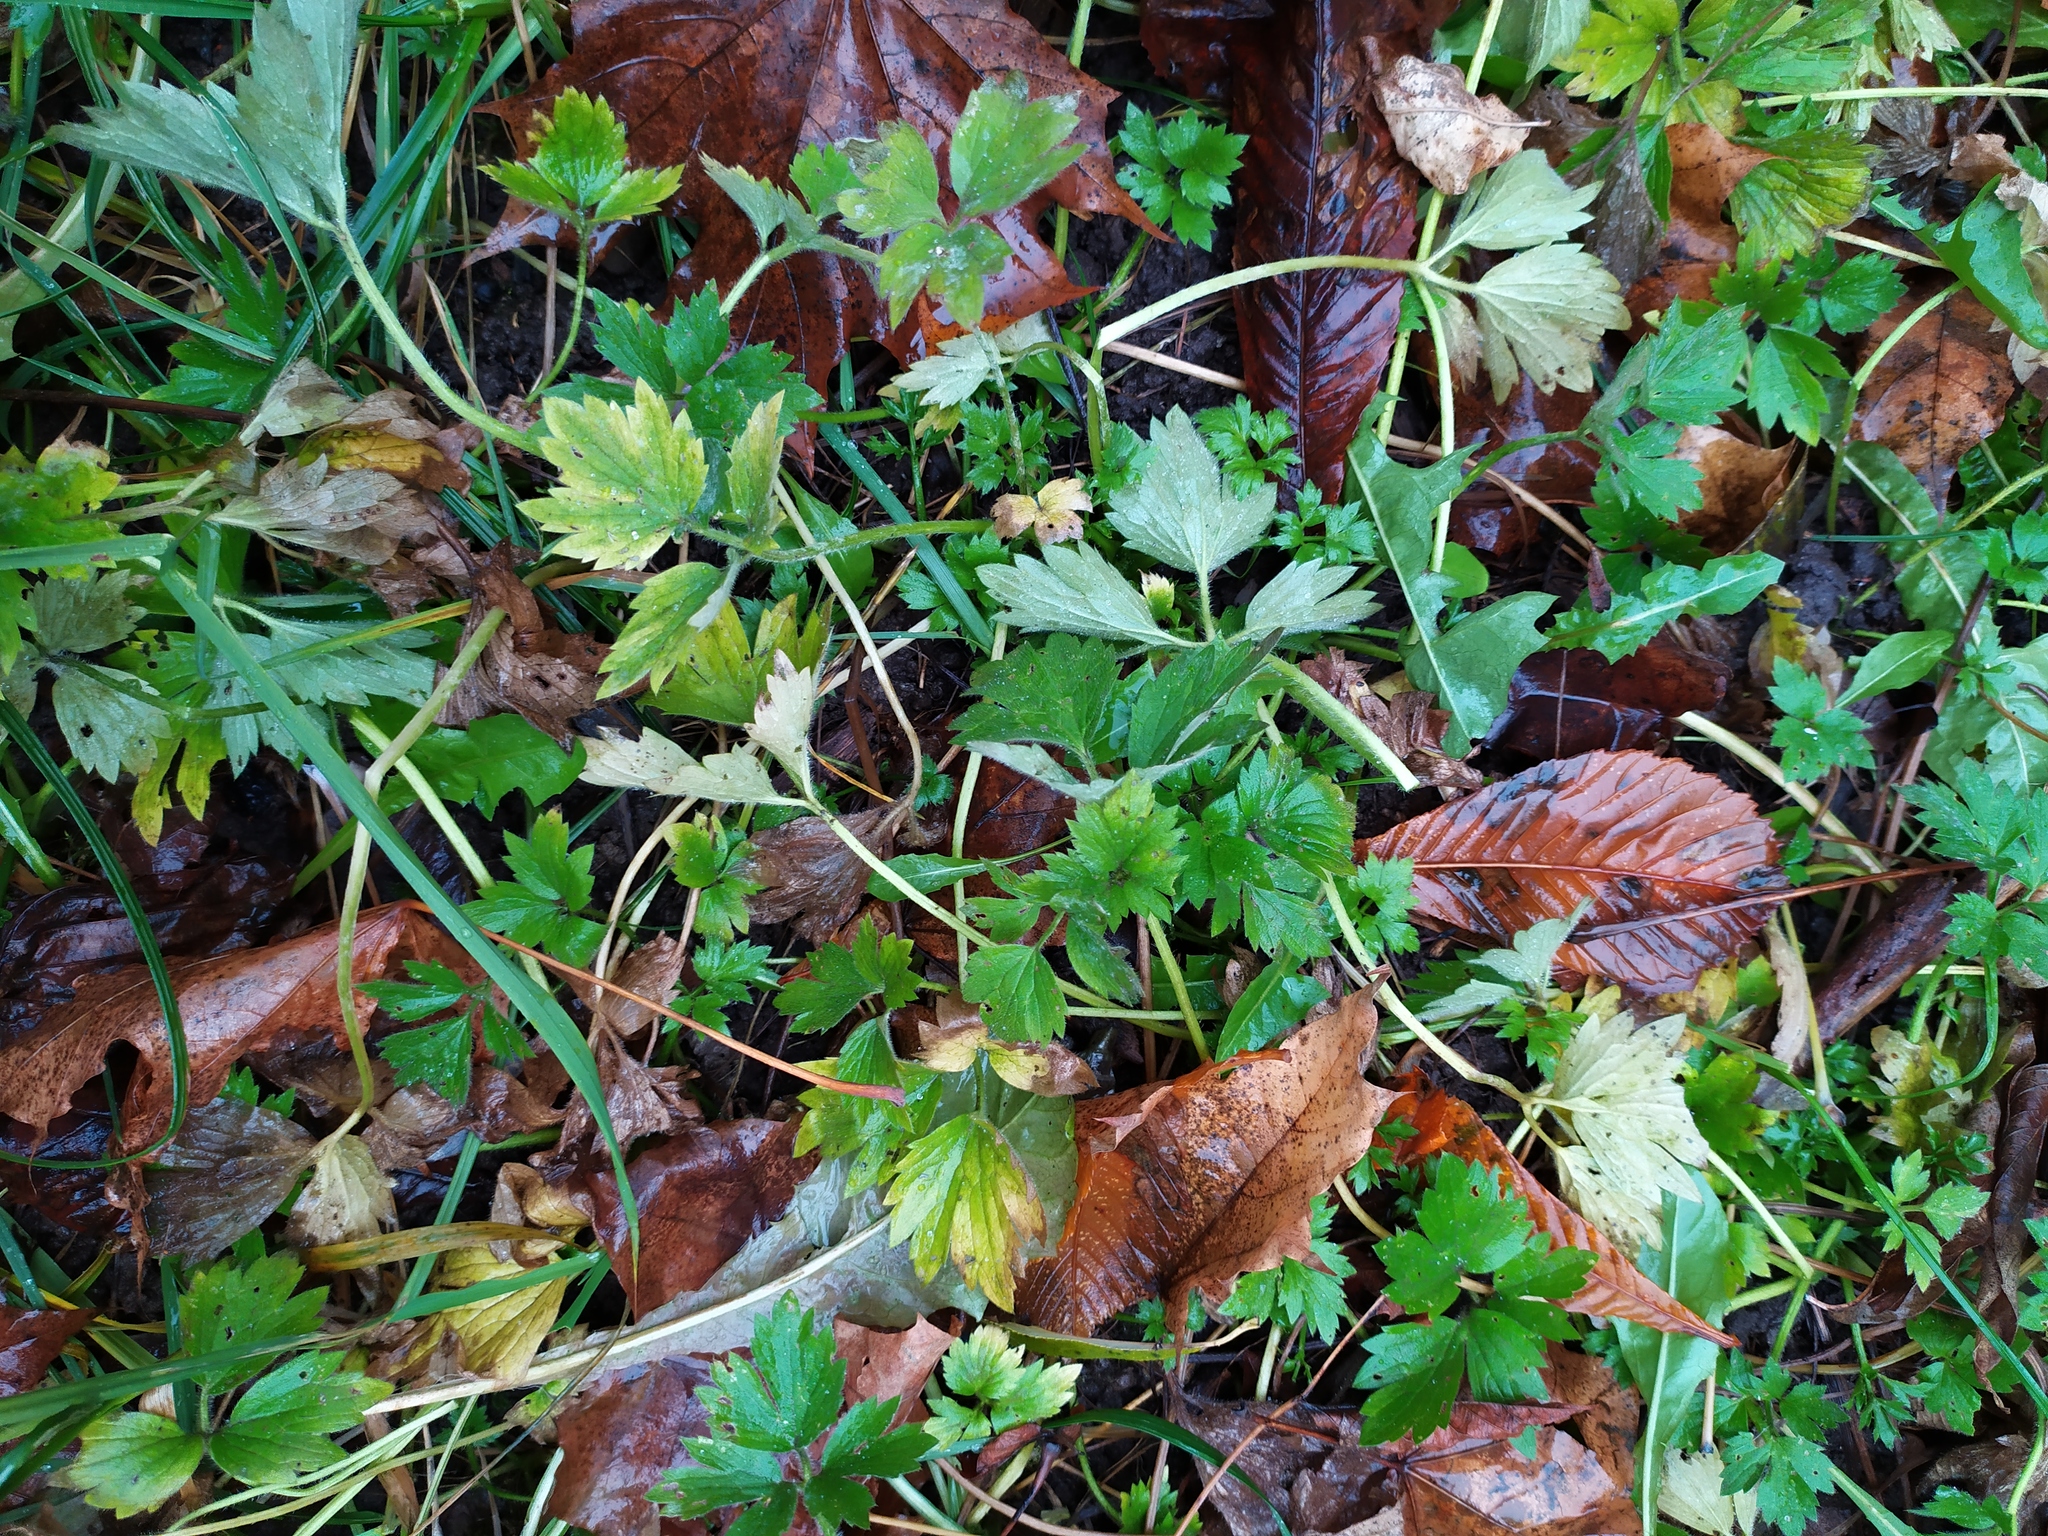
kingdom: Plantae
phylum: Tracheophyta
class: Magnoliopsida
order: Ranunculales
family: Ranunculaceae
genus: Ranunculus
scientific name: Ranunculus repens
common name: Creeping buttercup
